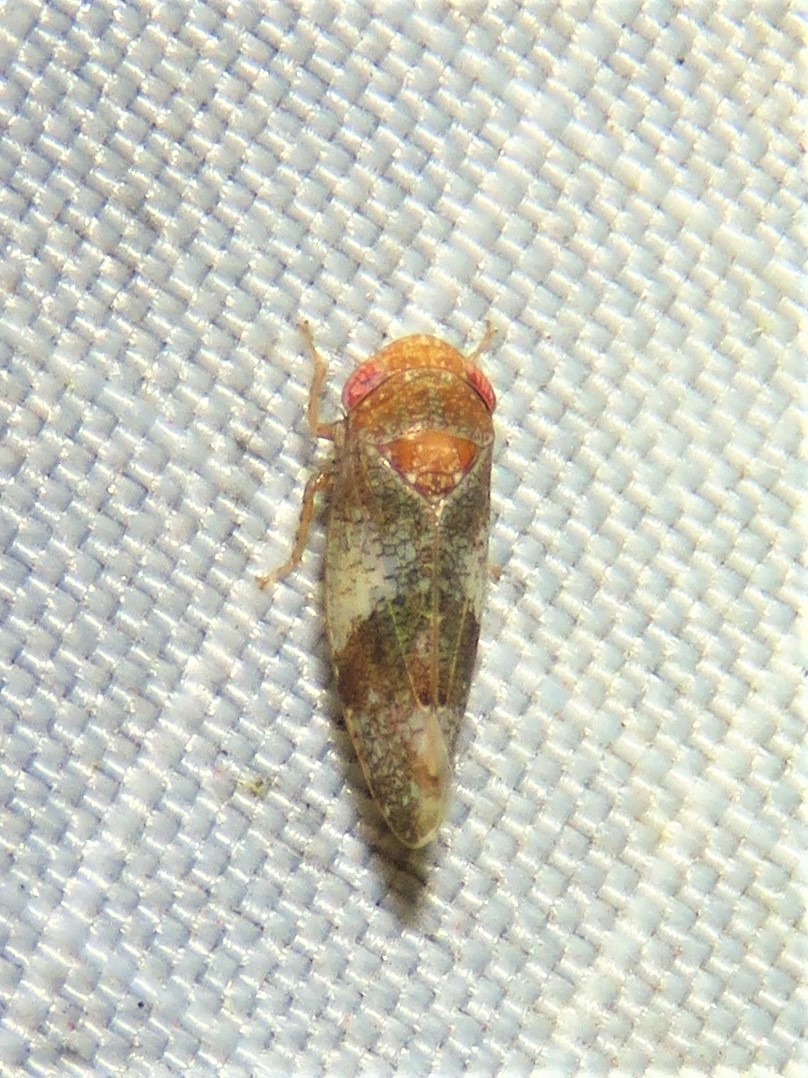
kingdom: Animalia
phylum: Arthropoda
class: Insecta
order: Hemiptera
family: Cicadellidae
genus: Norvellina
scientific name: Norvellina helenae
